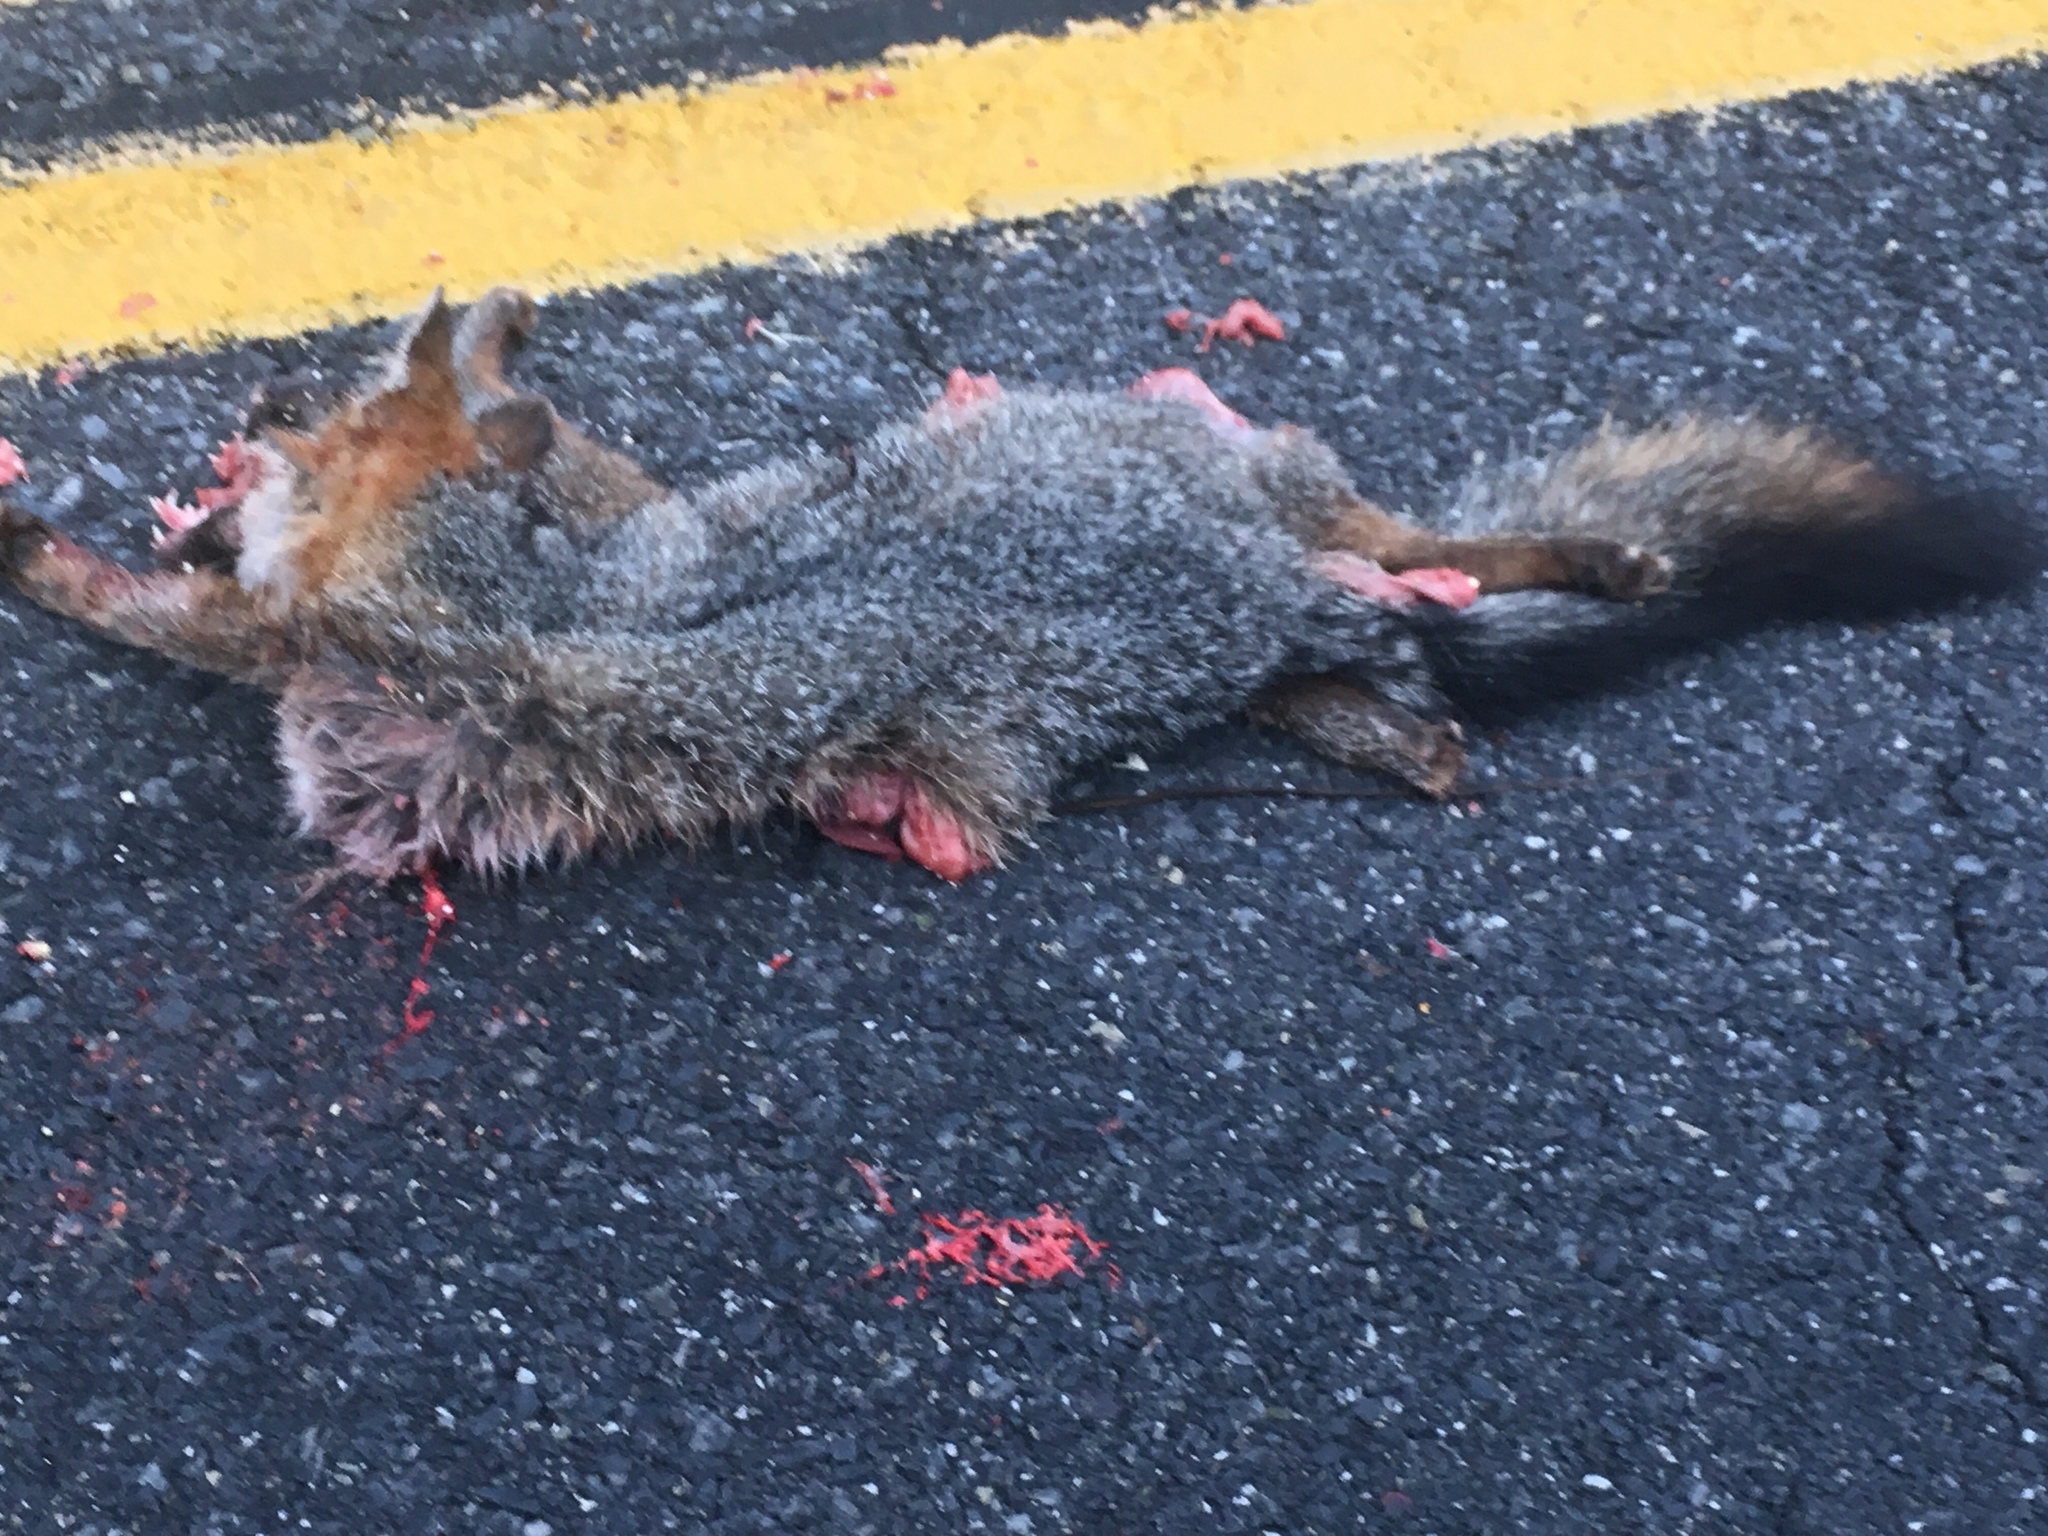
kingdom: Animalia
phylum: Chordata
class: Mammalia
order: Carnivora
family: Canidae
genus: Urocyon
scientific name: Urocyon cinereoargenteus
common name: Gray fox
